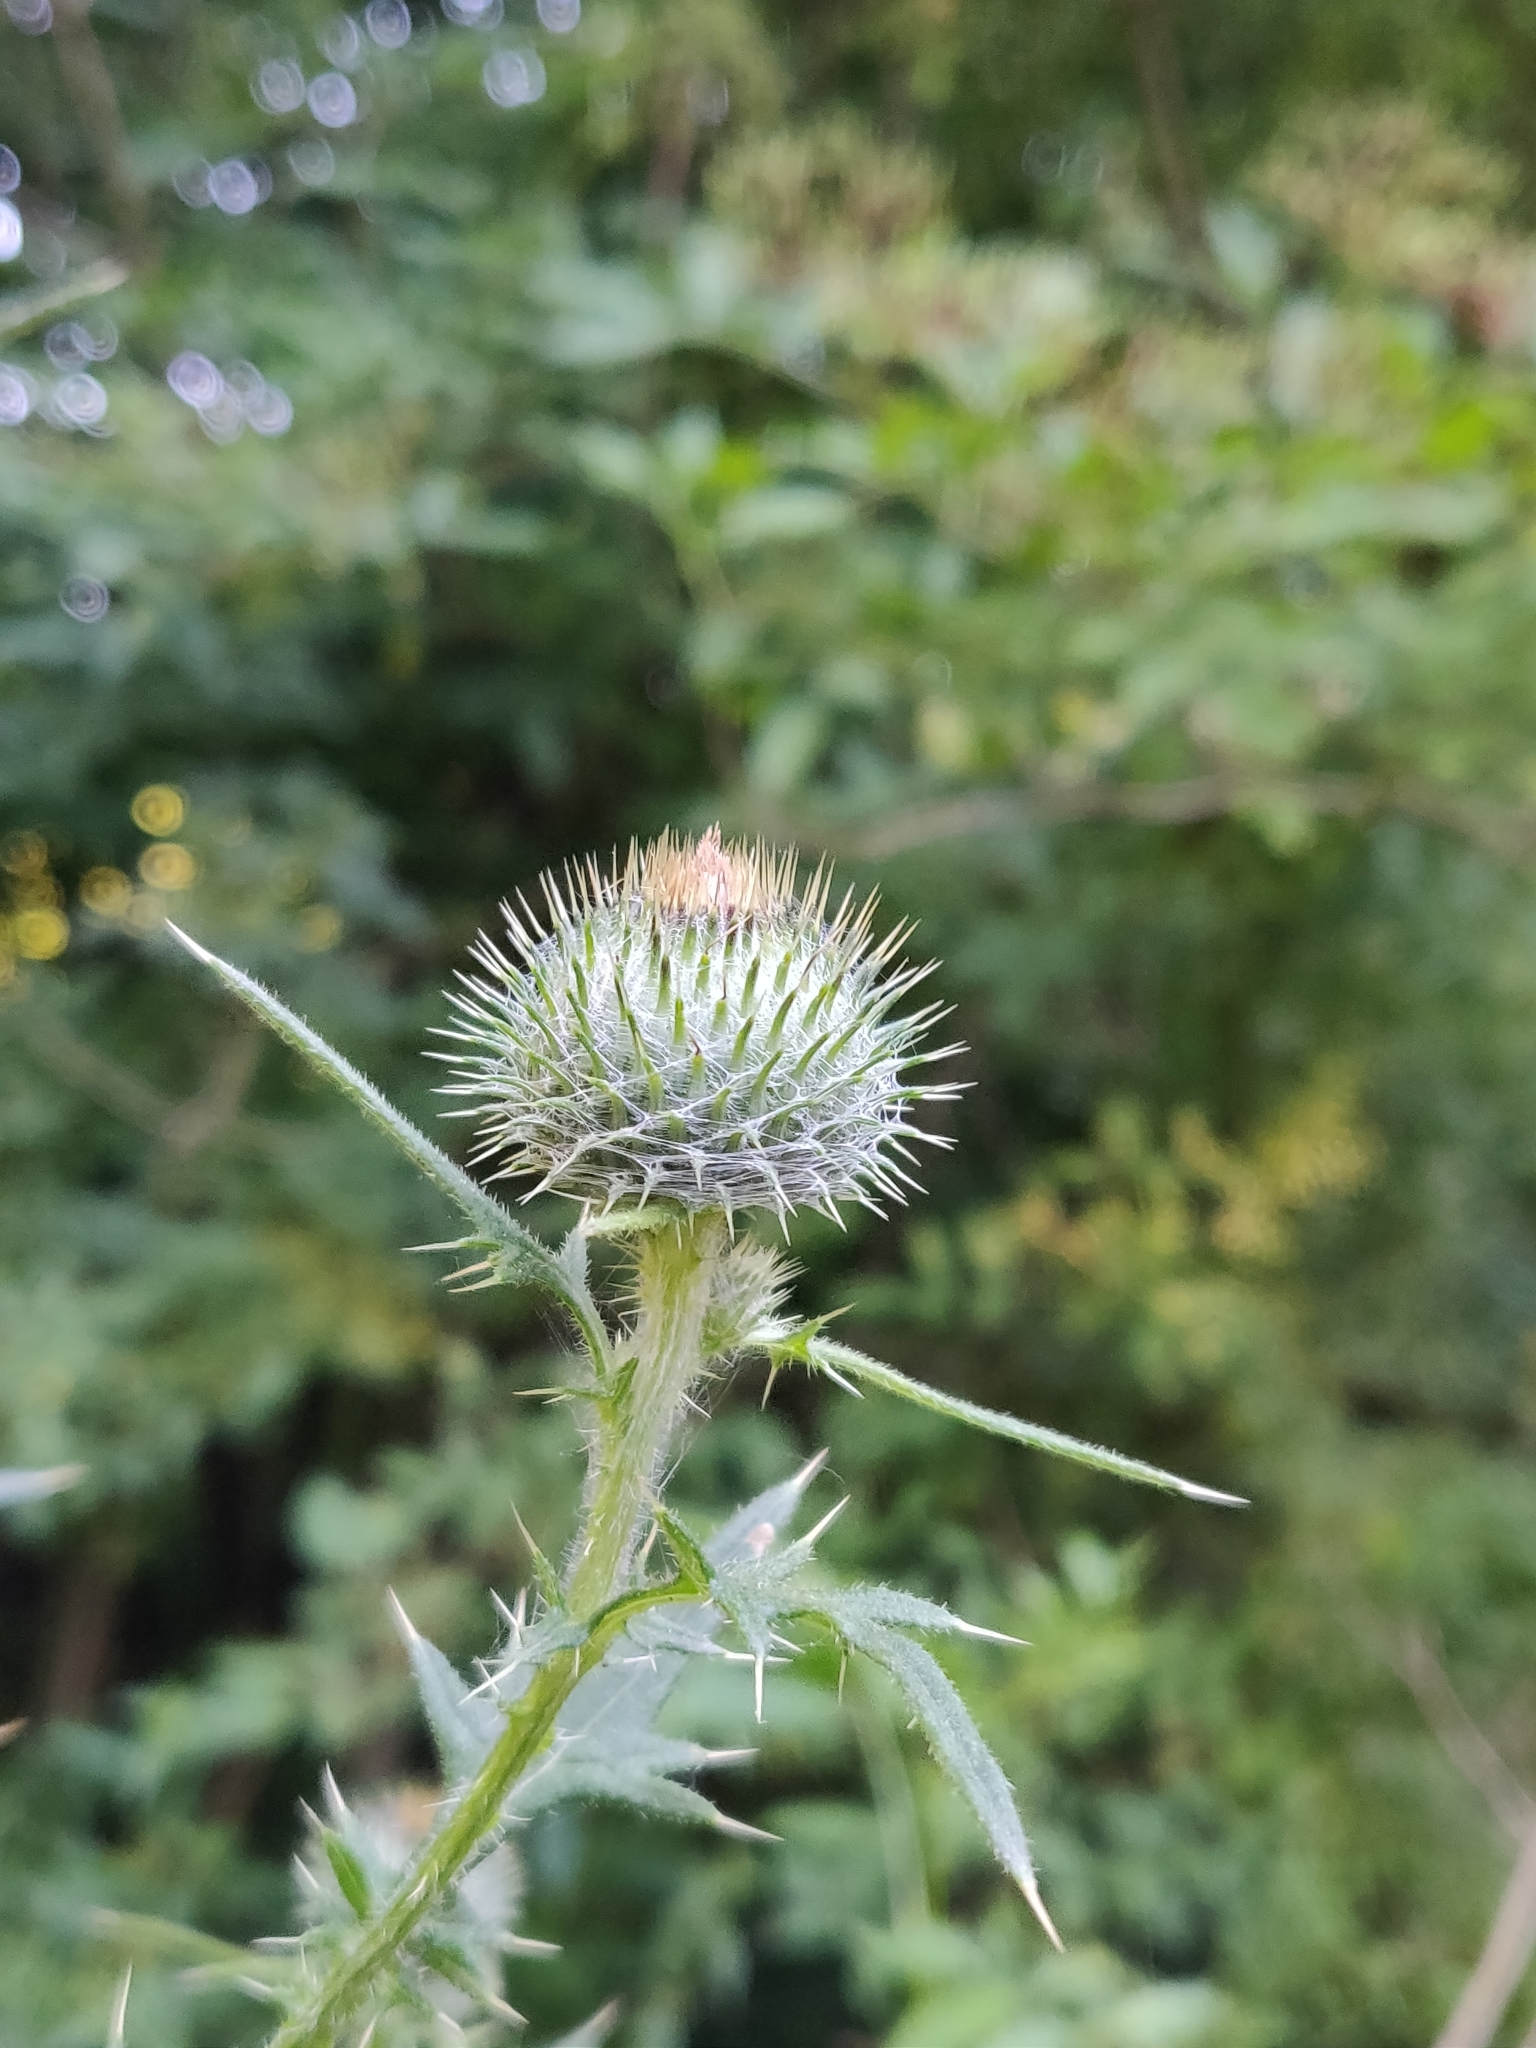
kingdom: Plantae
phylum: Tracheophyta
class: Magnoliopsida
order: Asterales
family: Asteraceae
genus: Cirsium
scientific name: Cirsium vulgare
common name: Bull thistle
